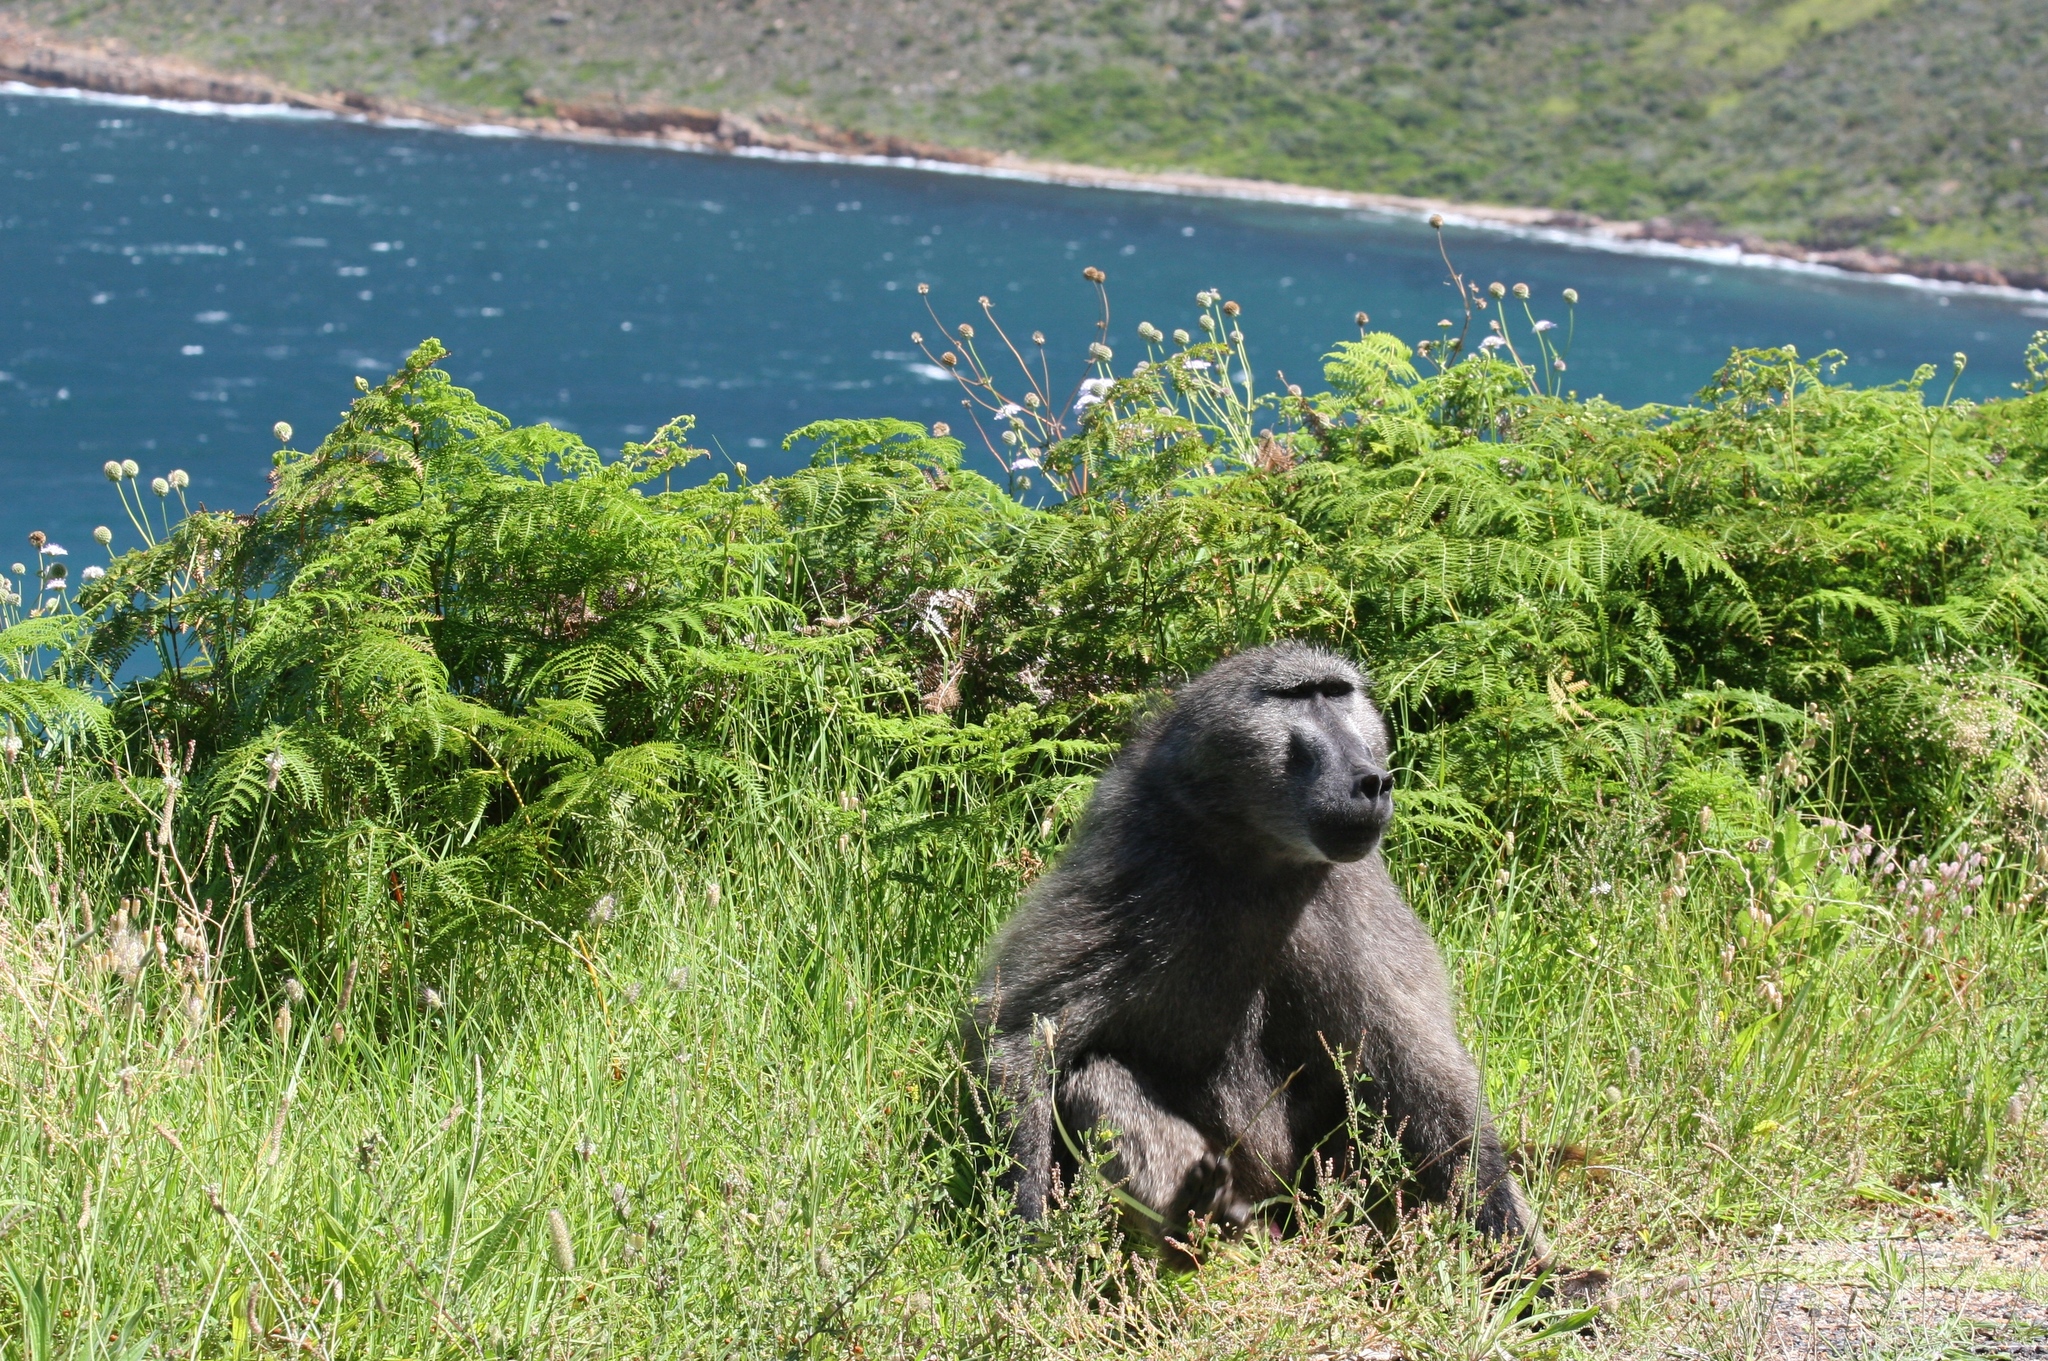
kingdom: Animalia
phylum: Chordata
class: Mammalia
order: Primates
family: Cercopithecidae
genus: Papio
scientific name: Papio ursinus
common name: Chacma baboon
